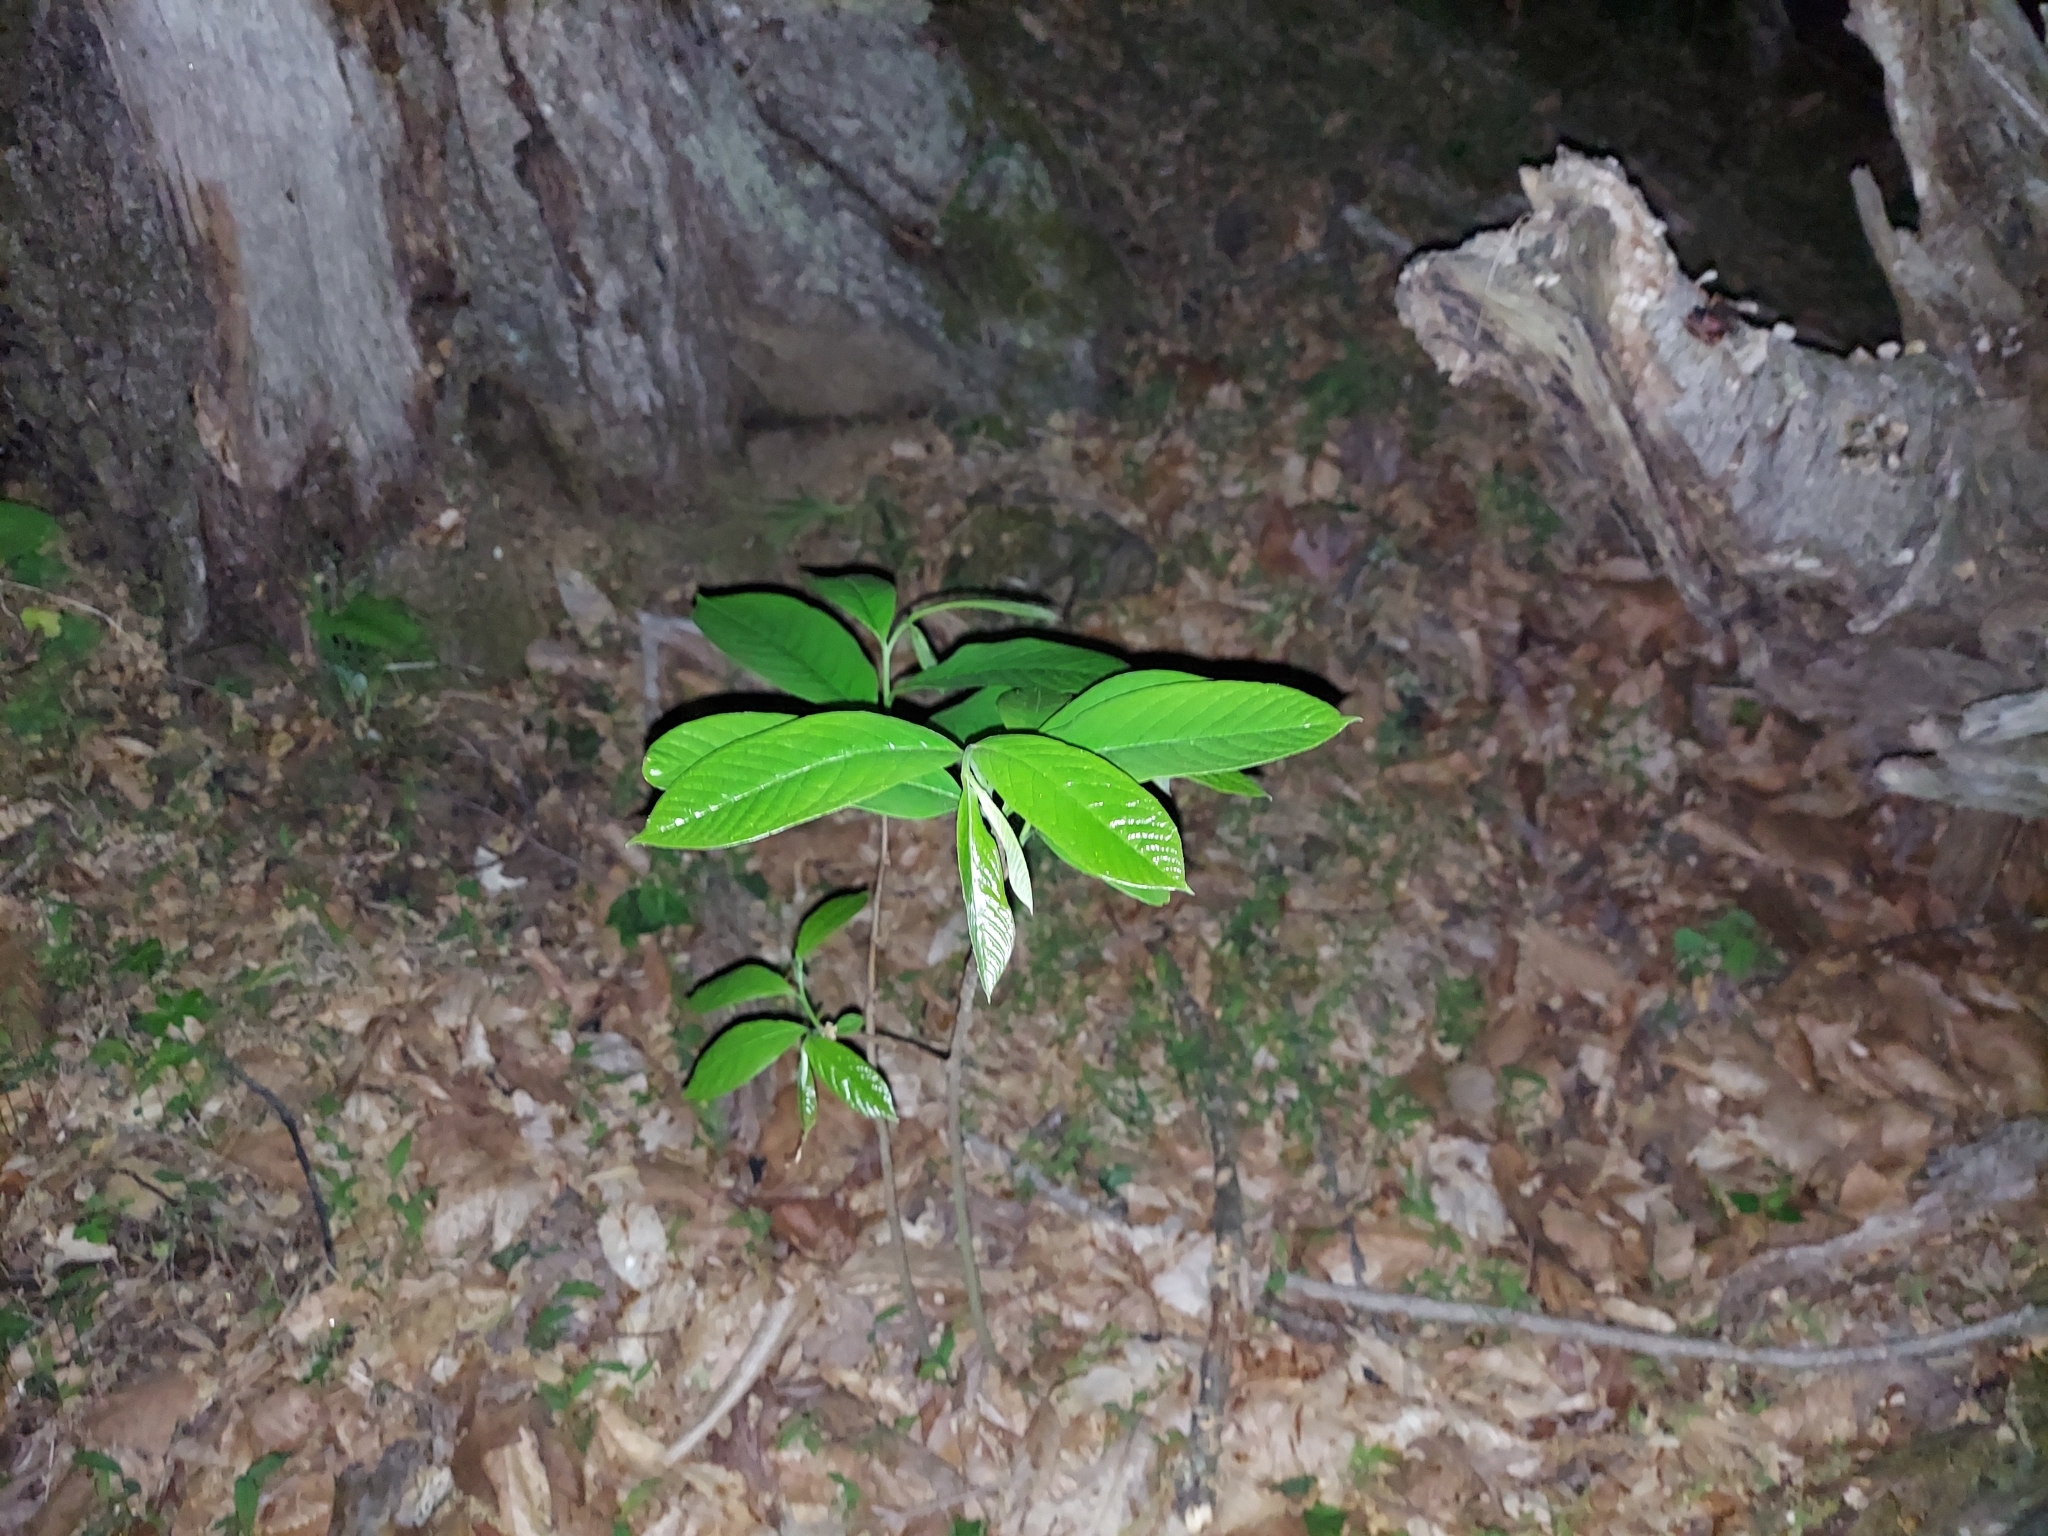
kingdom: Plantae
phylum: Tracheophyta
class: Magnoliopsida
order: Magnoliales
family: Annonaceae
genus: Asimina
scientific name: Asimina triloba
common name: Dog-banana
